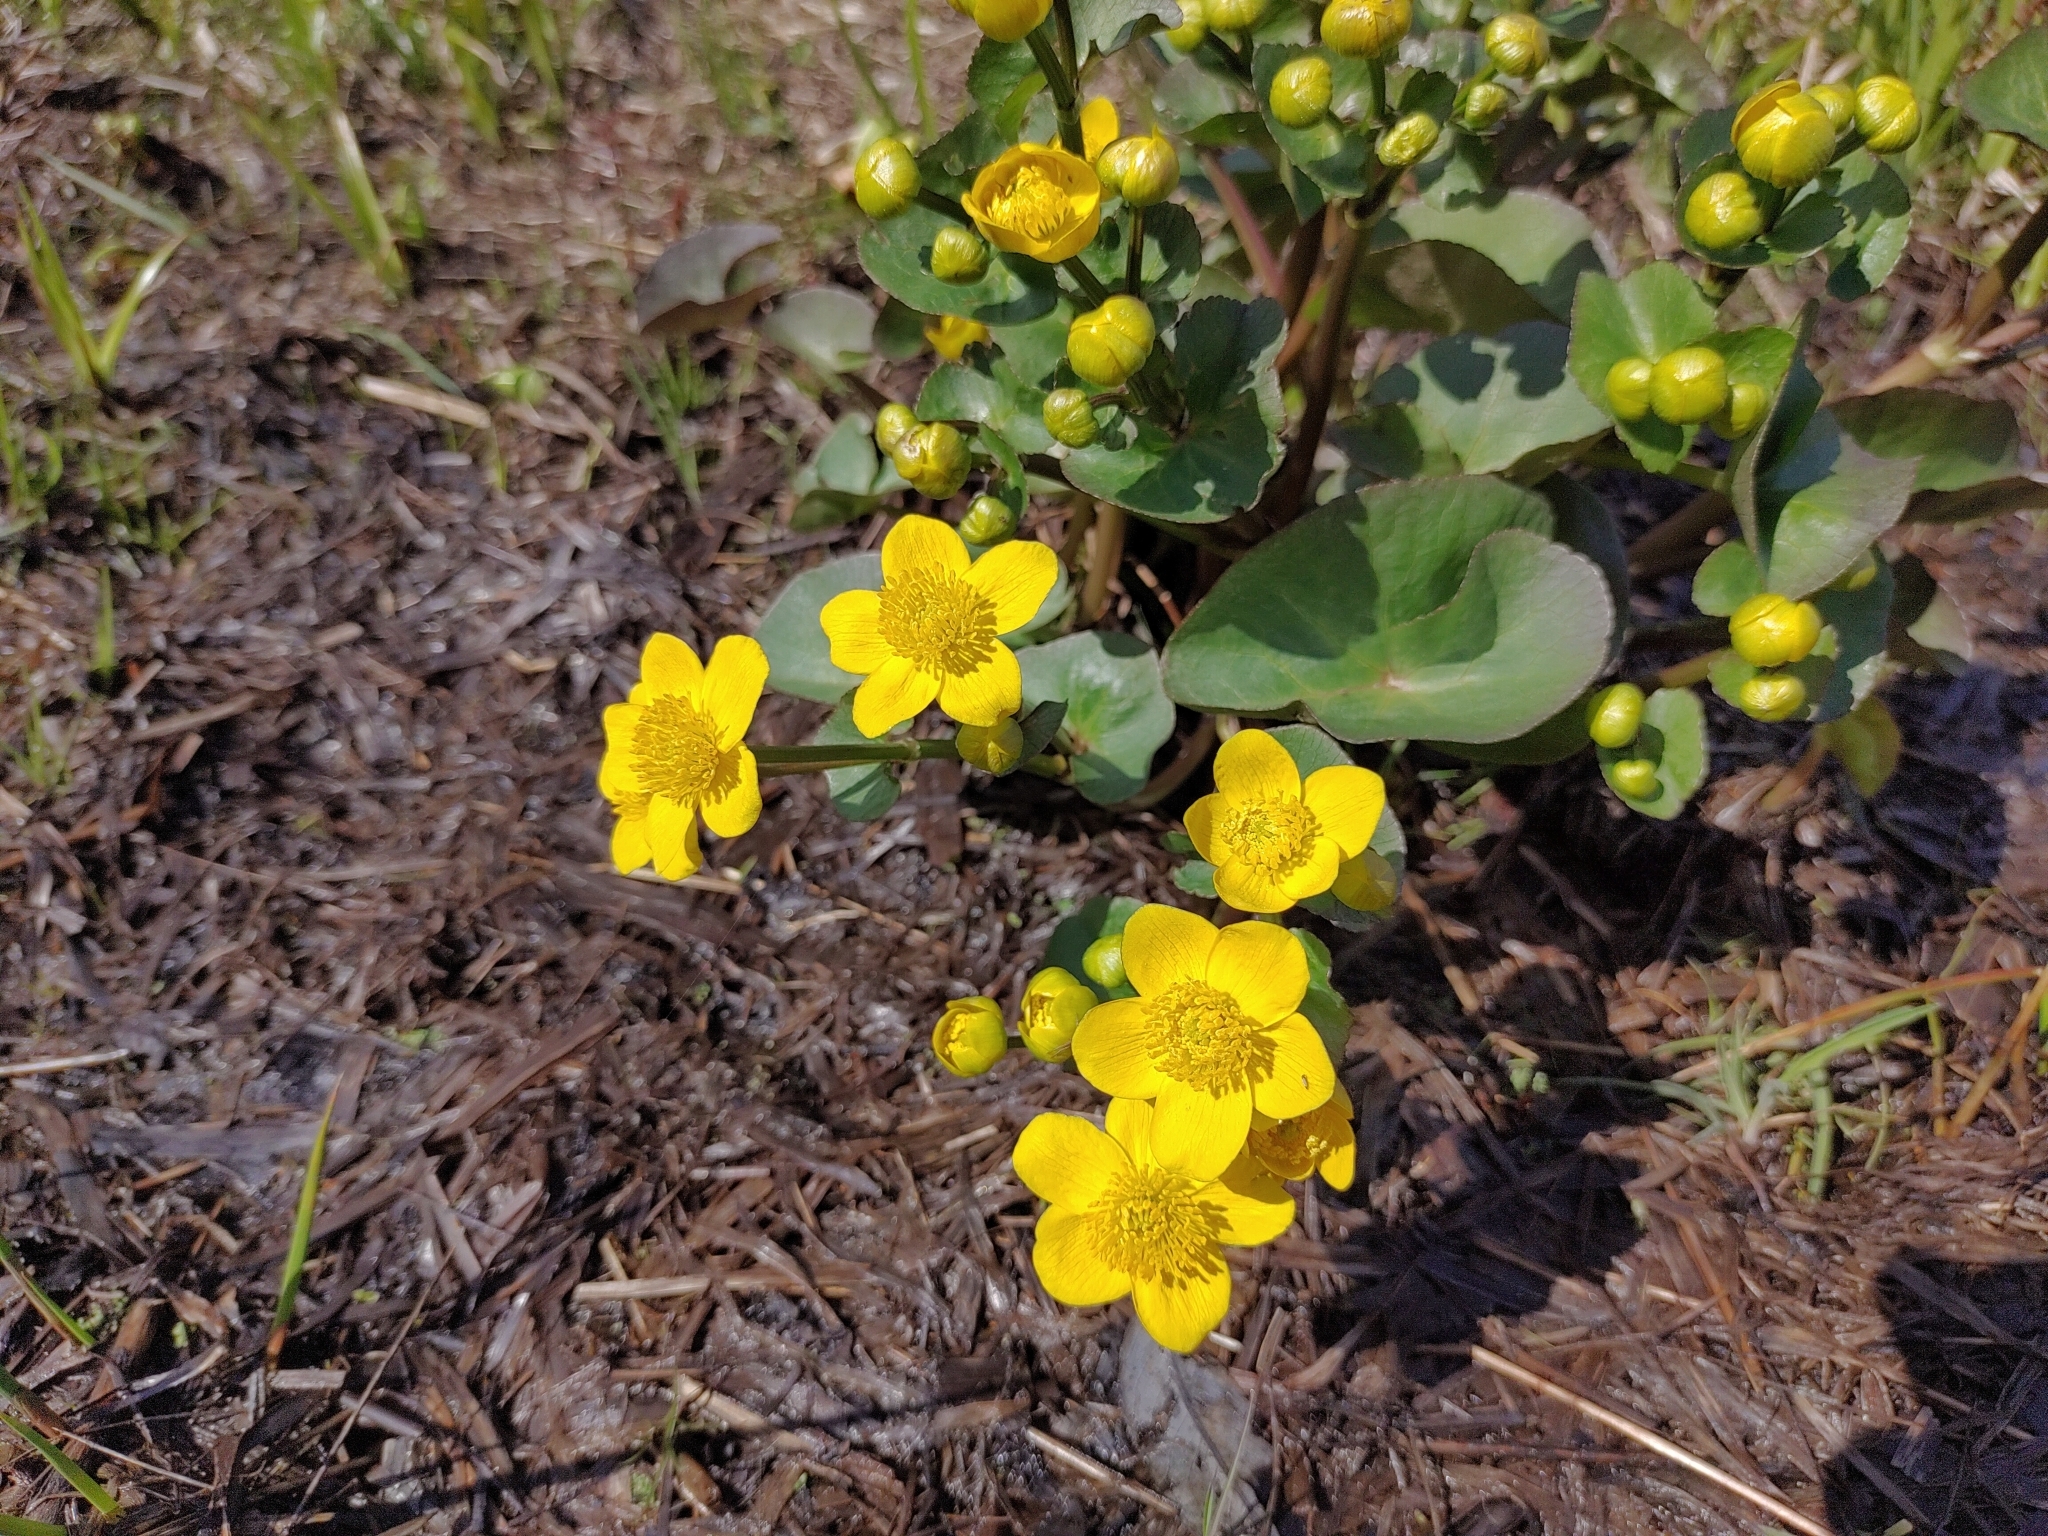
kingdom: Plantae
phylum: Tracheophyta
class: Magnoliopsida
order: Ranunculales
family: Ranunculaceae
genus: Caltha
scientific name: Caltha palustris
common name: Marsh marigold
